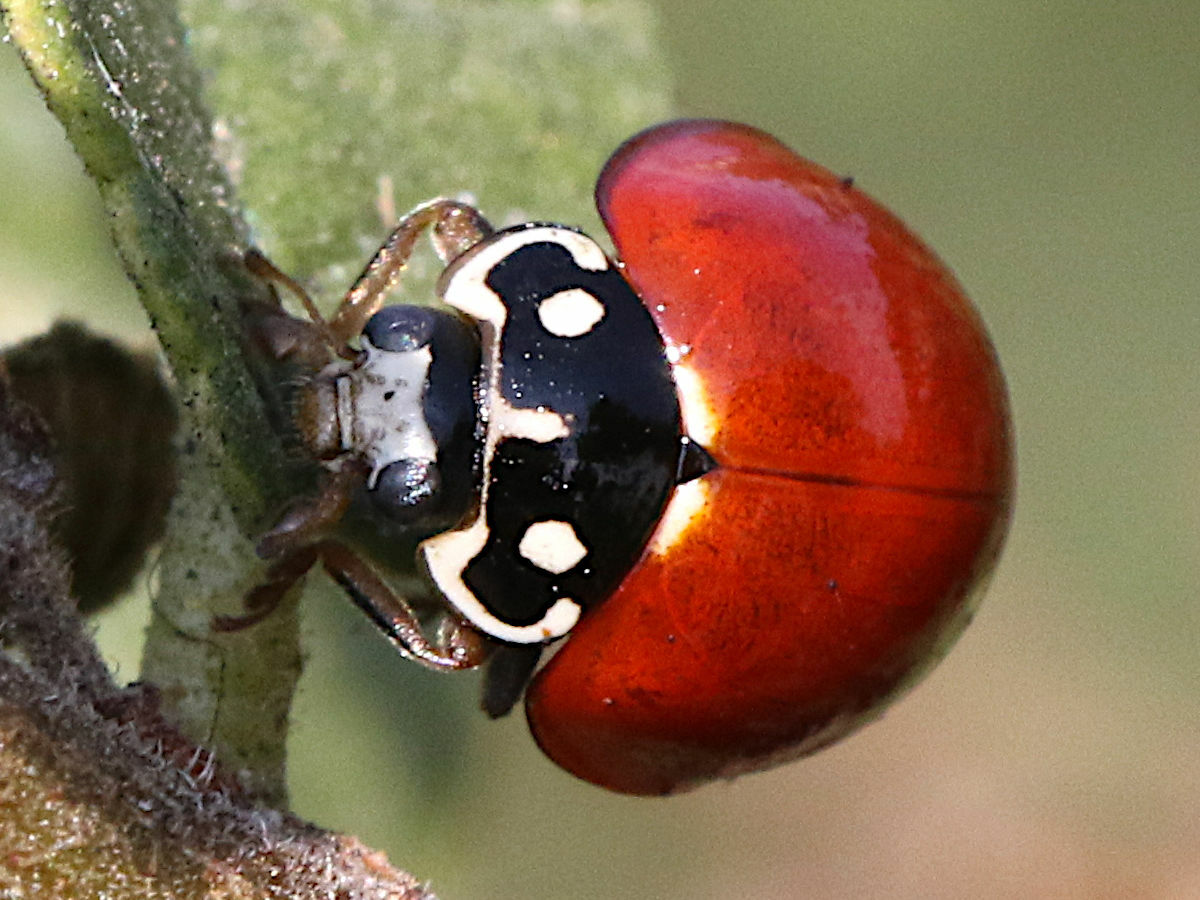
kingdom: Animalia
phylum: Arthropoda
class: Insecta
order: Coleoptera
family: Coccinellidae
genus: Cycloneda
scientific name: Cycloneda sanguinea
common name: Ladybird beetle
